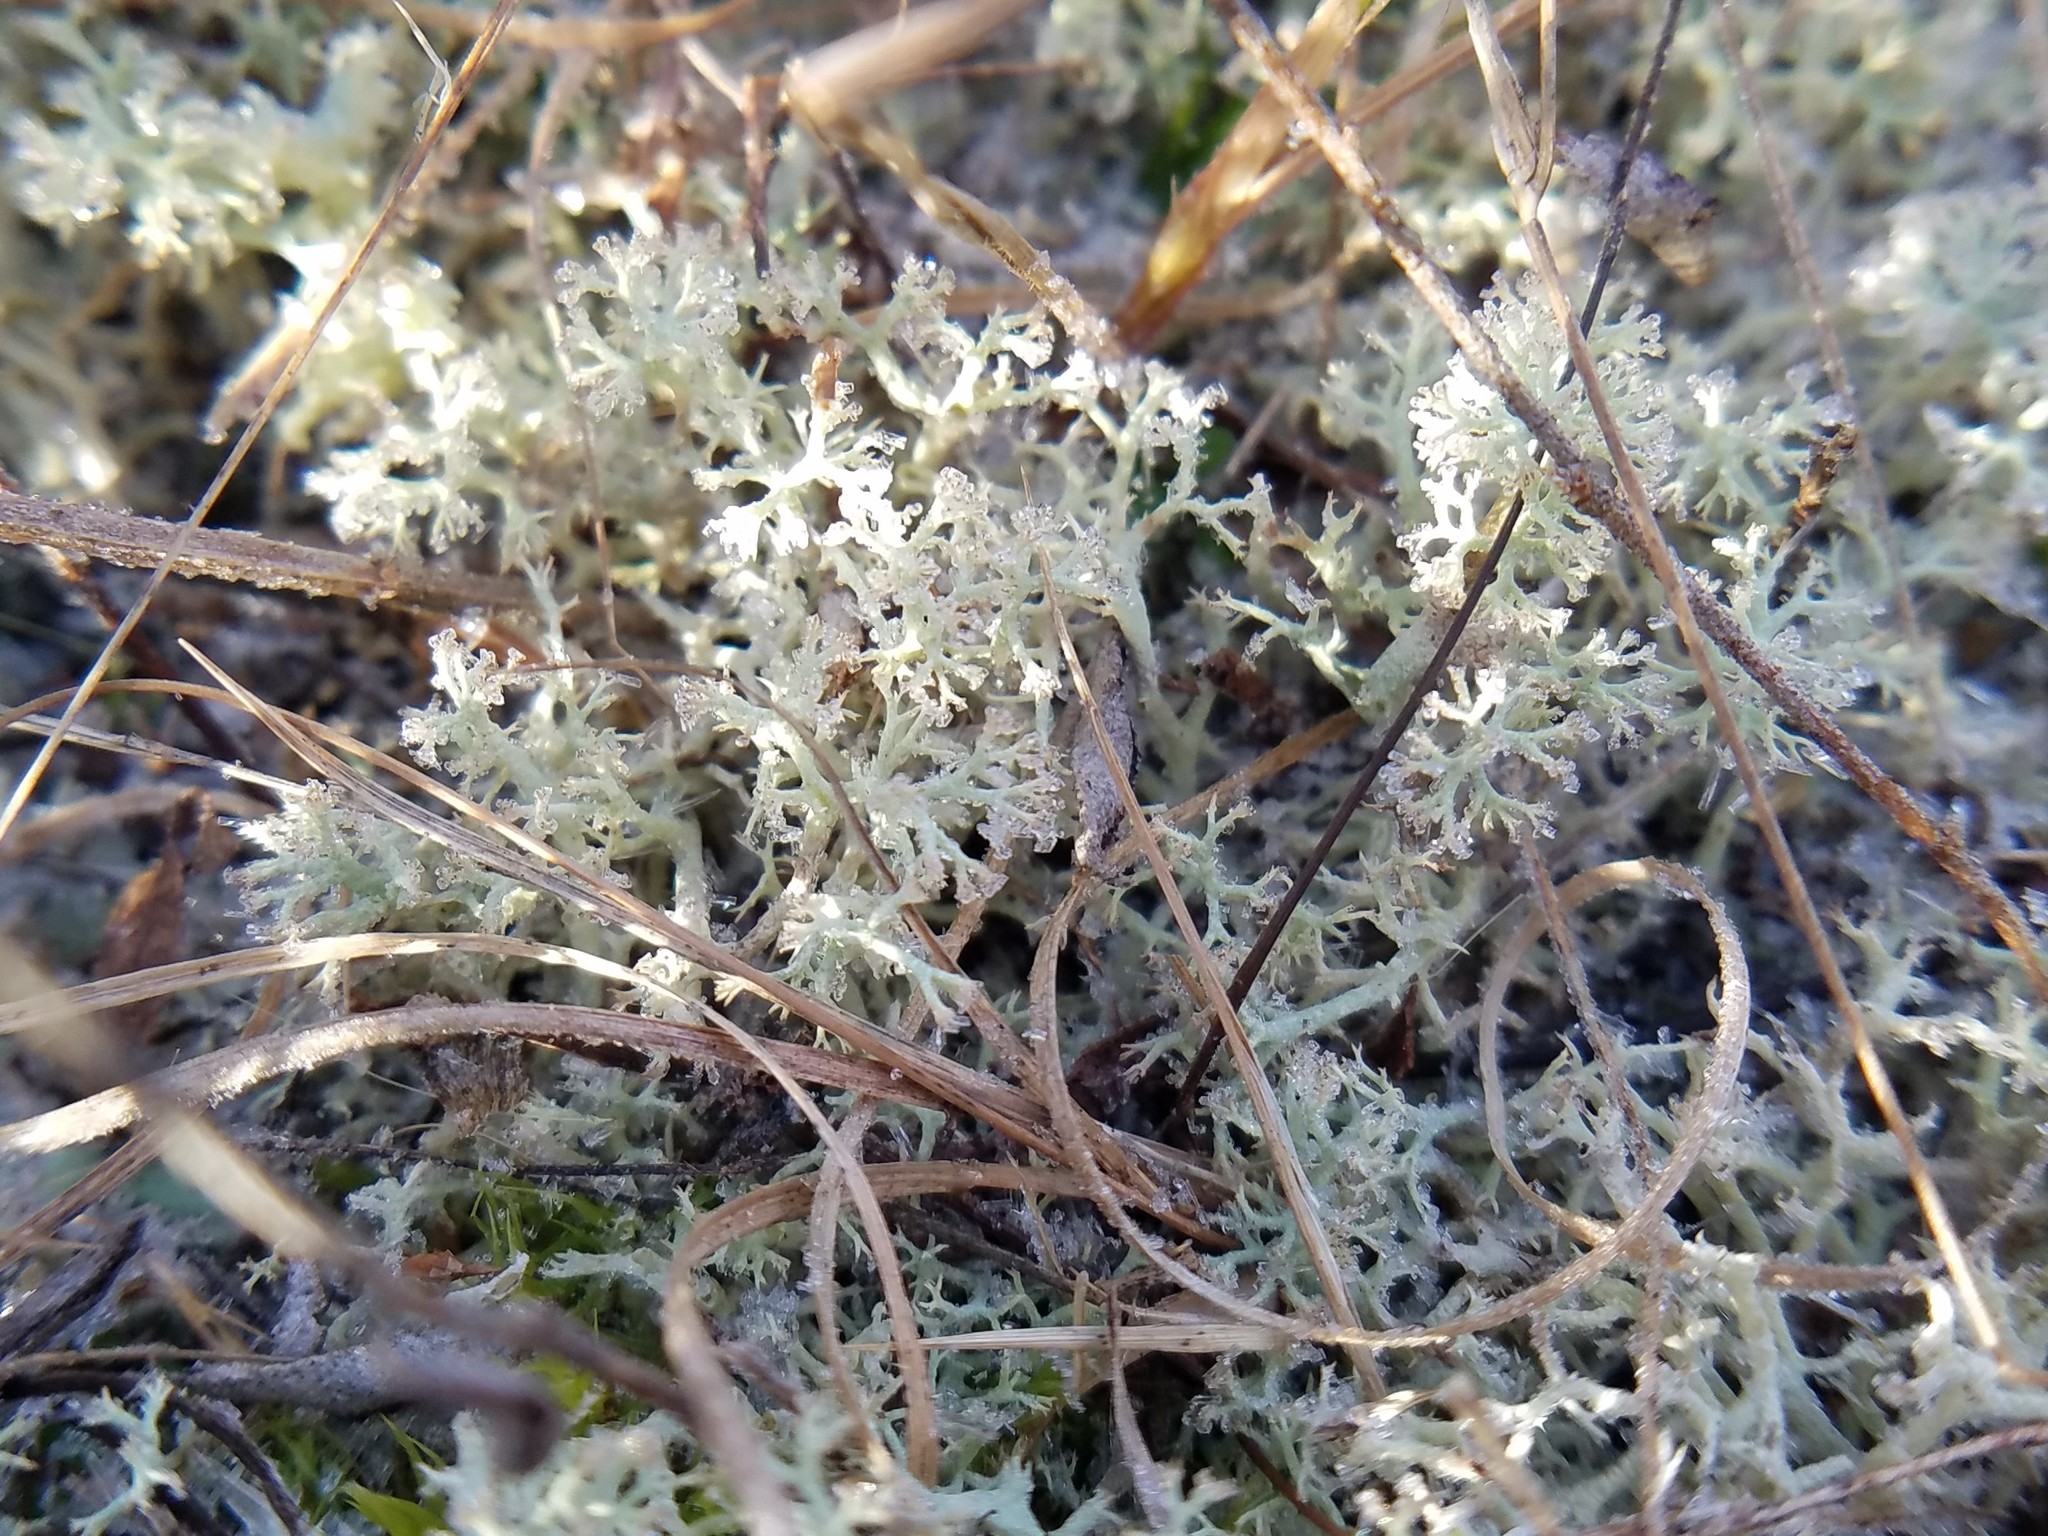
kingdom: Fungi
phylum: Ascomycota
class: Lecanoromycetes
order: Lecanorales
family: Cladoniaceae
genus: Cladonia
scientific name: Cladonia subtenuis
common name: Dixie reindeer lichen
